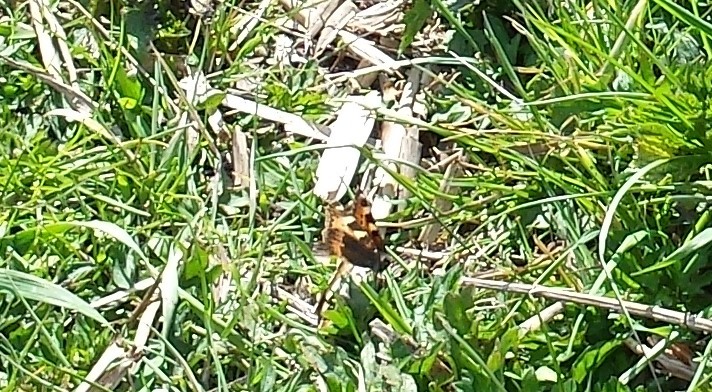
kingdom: Animalia
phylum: Arthropoda
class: Insecta
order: Lepidoptera
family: Nymphalidae
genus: Aglais
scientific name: Aglais urticae
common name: Small tortoiseshell
